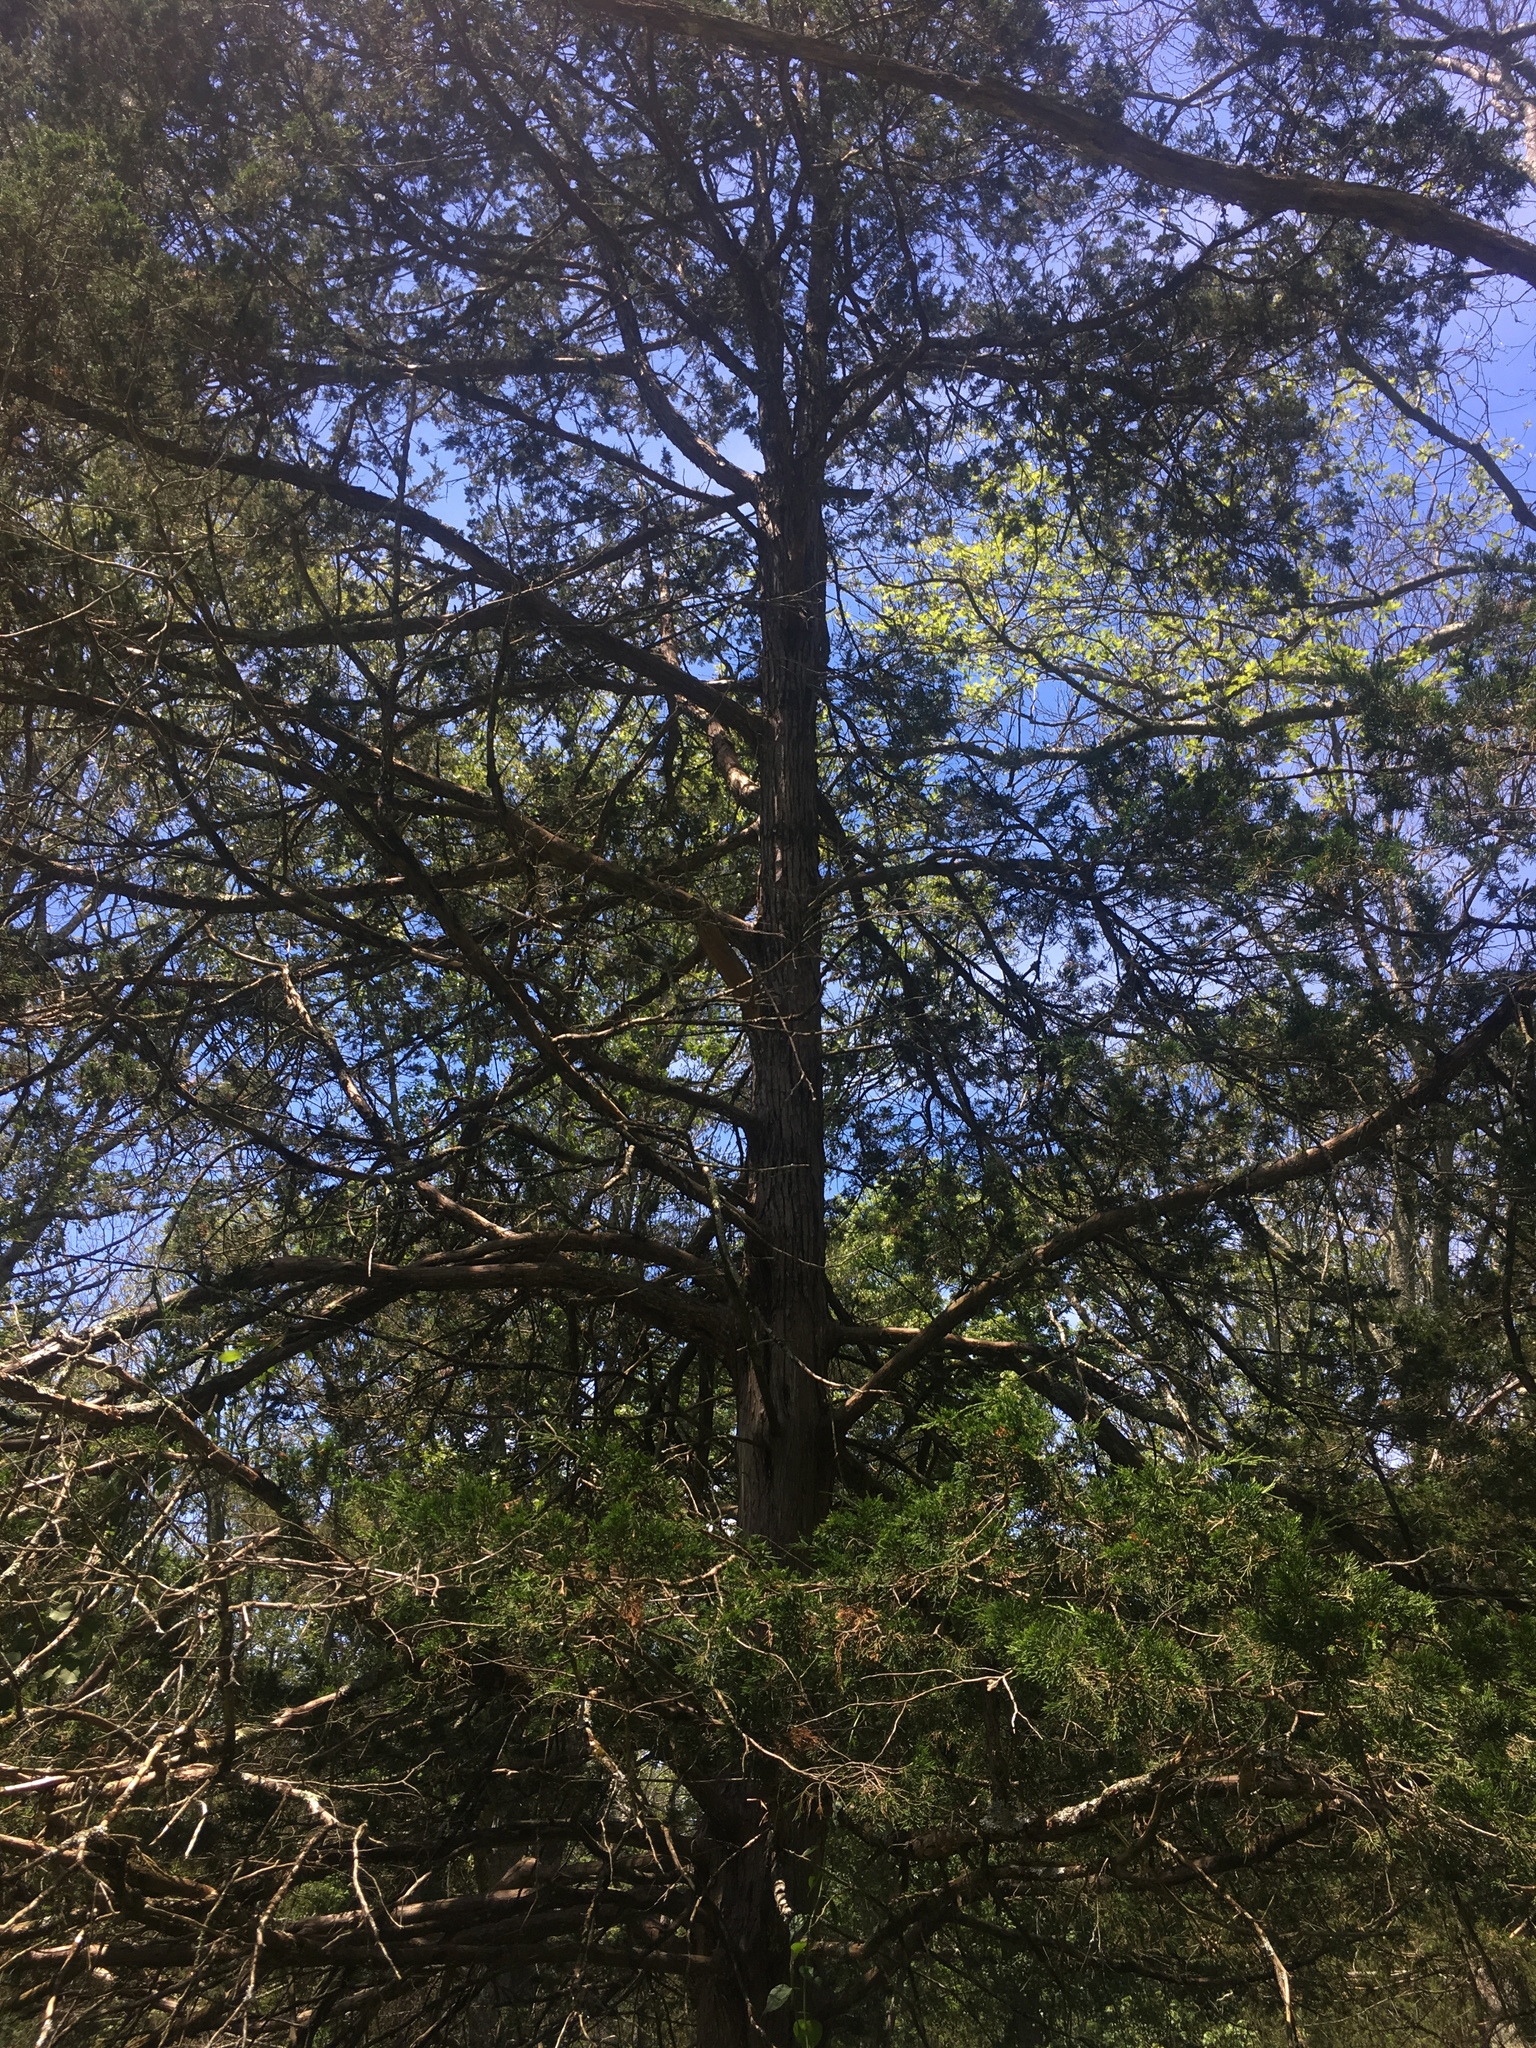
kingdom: Plantae
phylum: Tracheophyta
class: Pinopsida
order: Pinales
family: Cupressaceae
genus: Juniperus
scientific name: Juniperus virginiana
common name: Red juniper
